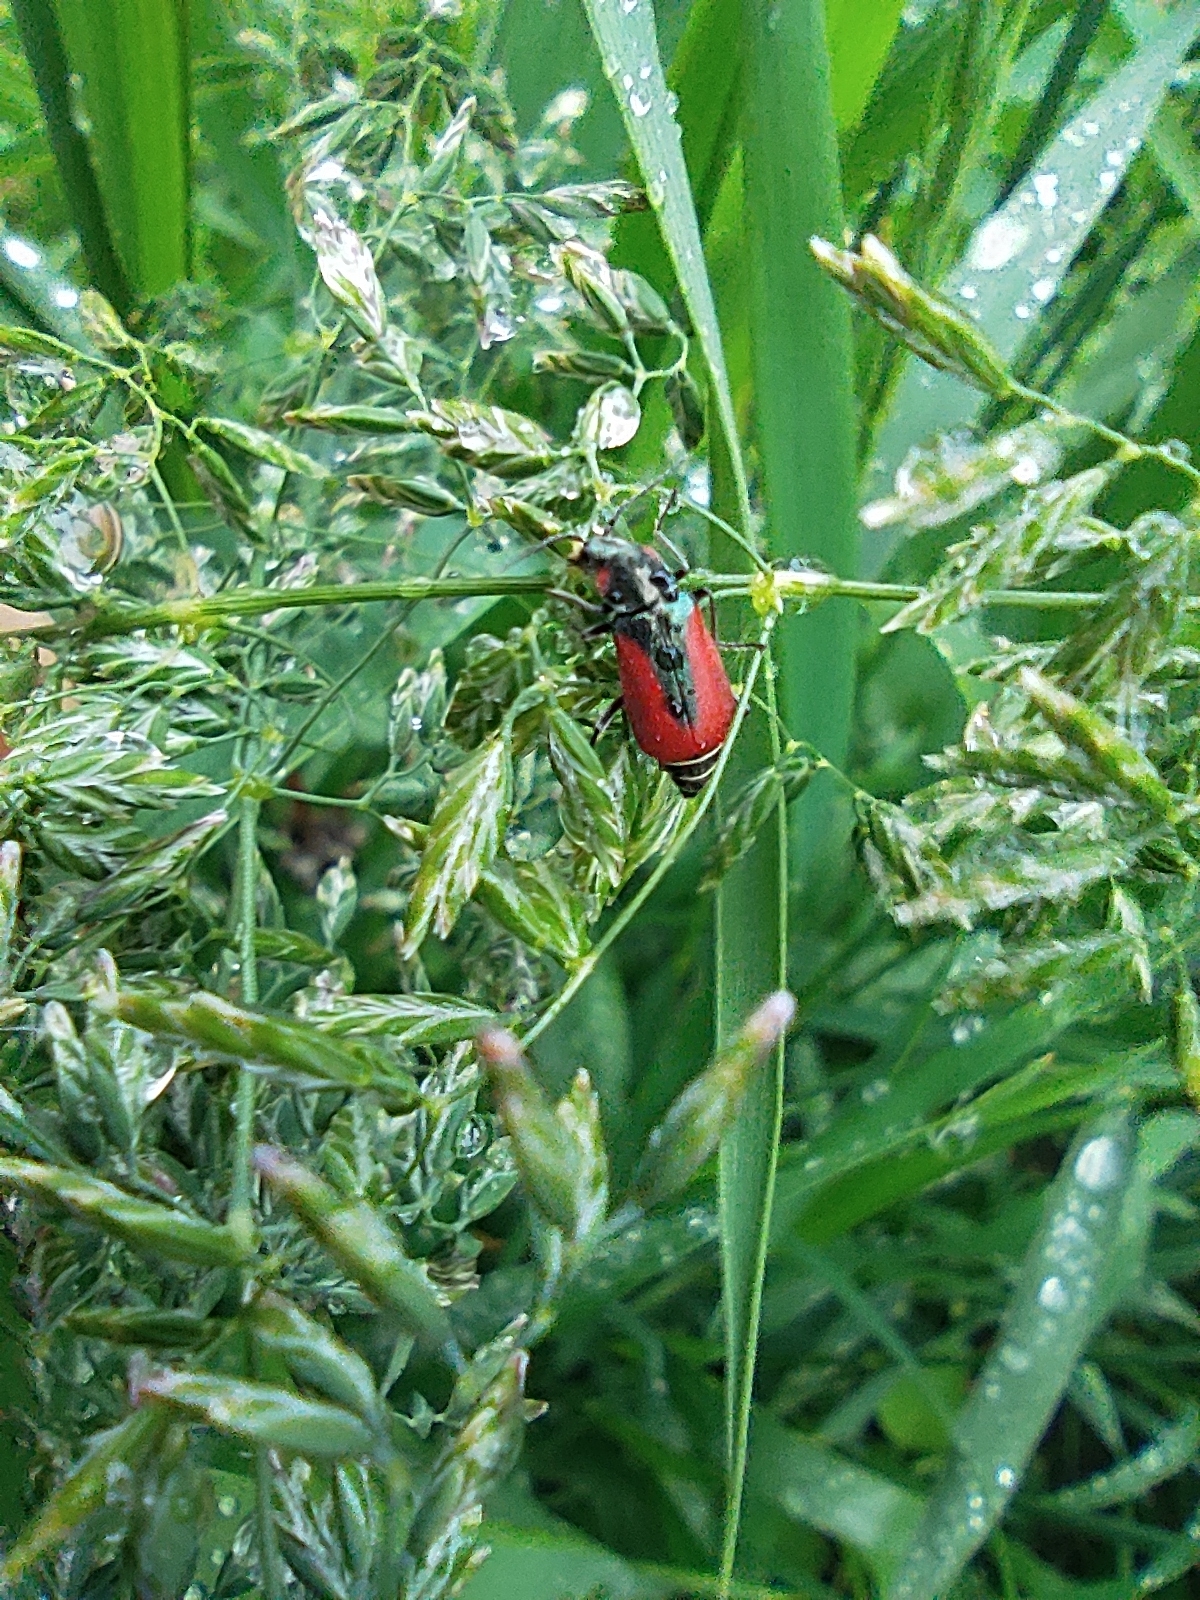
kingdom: Animalia
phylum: Arthropoda
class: Insecta
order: Coleoptera
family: Melyridae
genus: Malachius
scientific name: Malachius aeneus
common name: Scarlet malachite beetle
